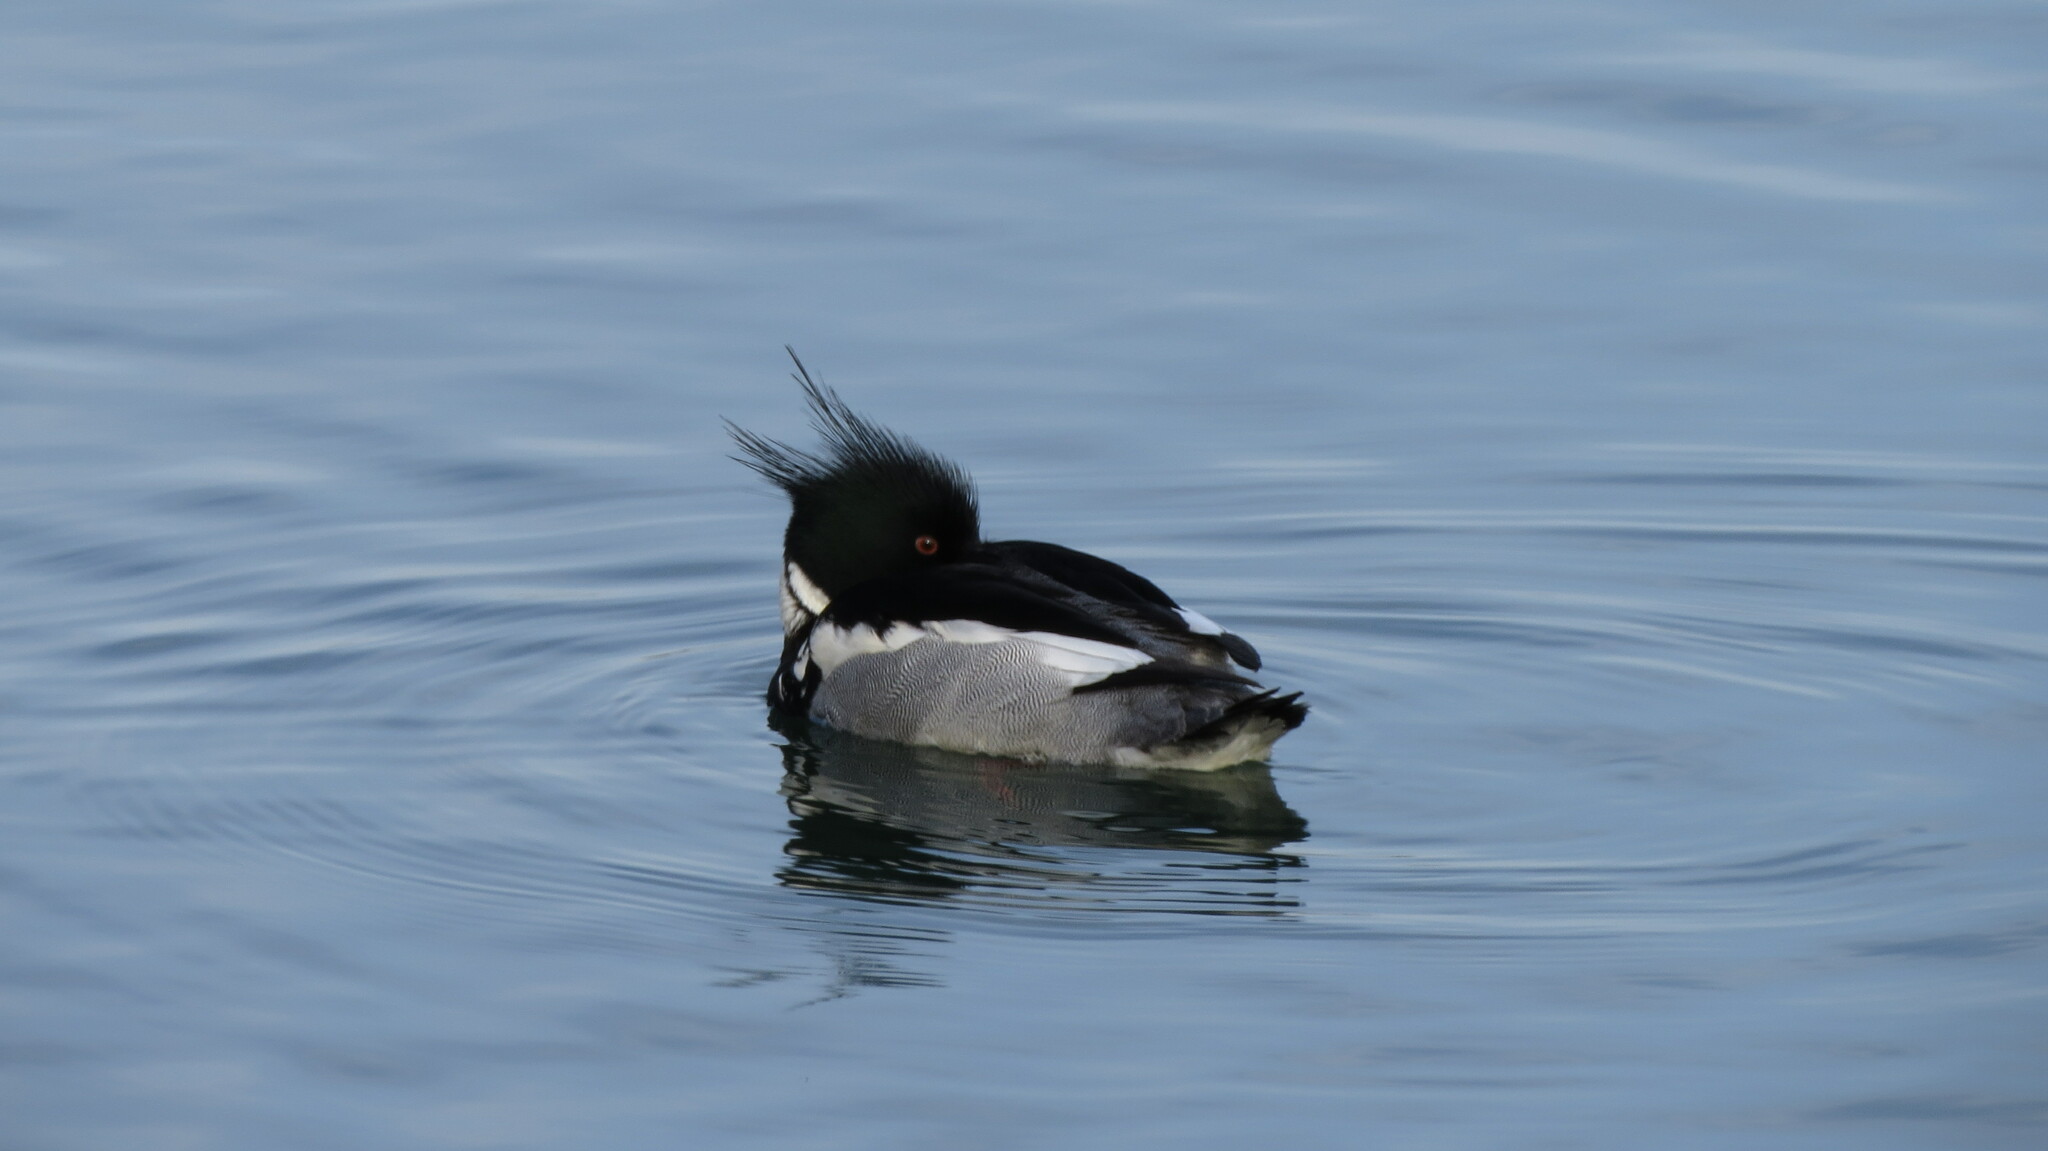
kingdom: Animalia
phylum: Chordata
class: Aves
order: Anseriformes
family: Anatidae
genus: Mergus
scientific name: Mergus serrator
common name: Red-breasted merganser
